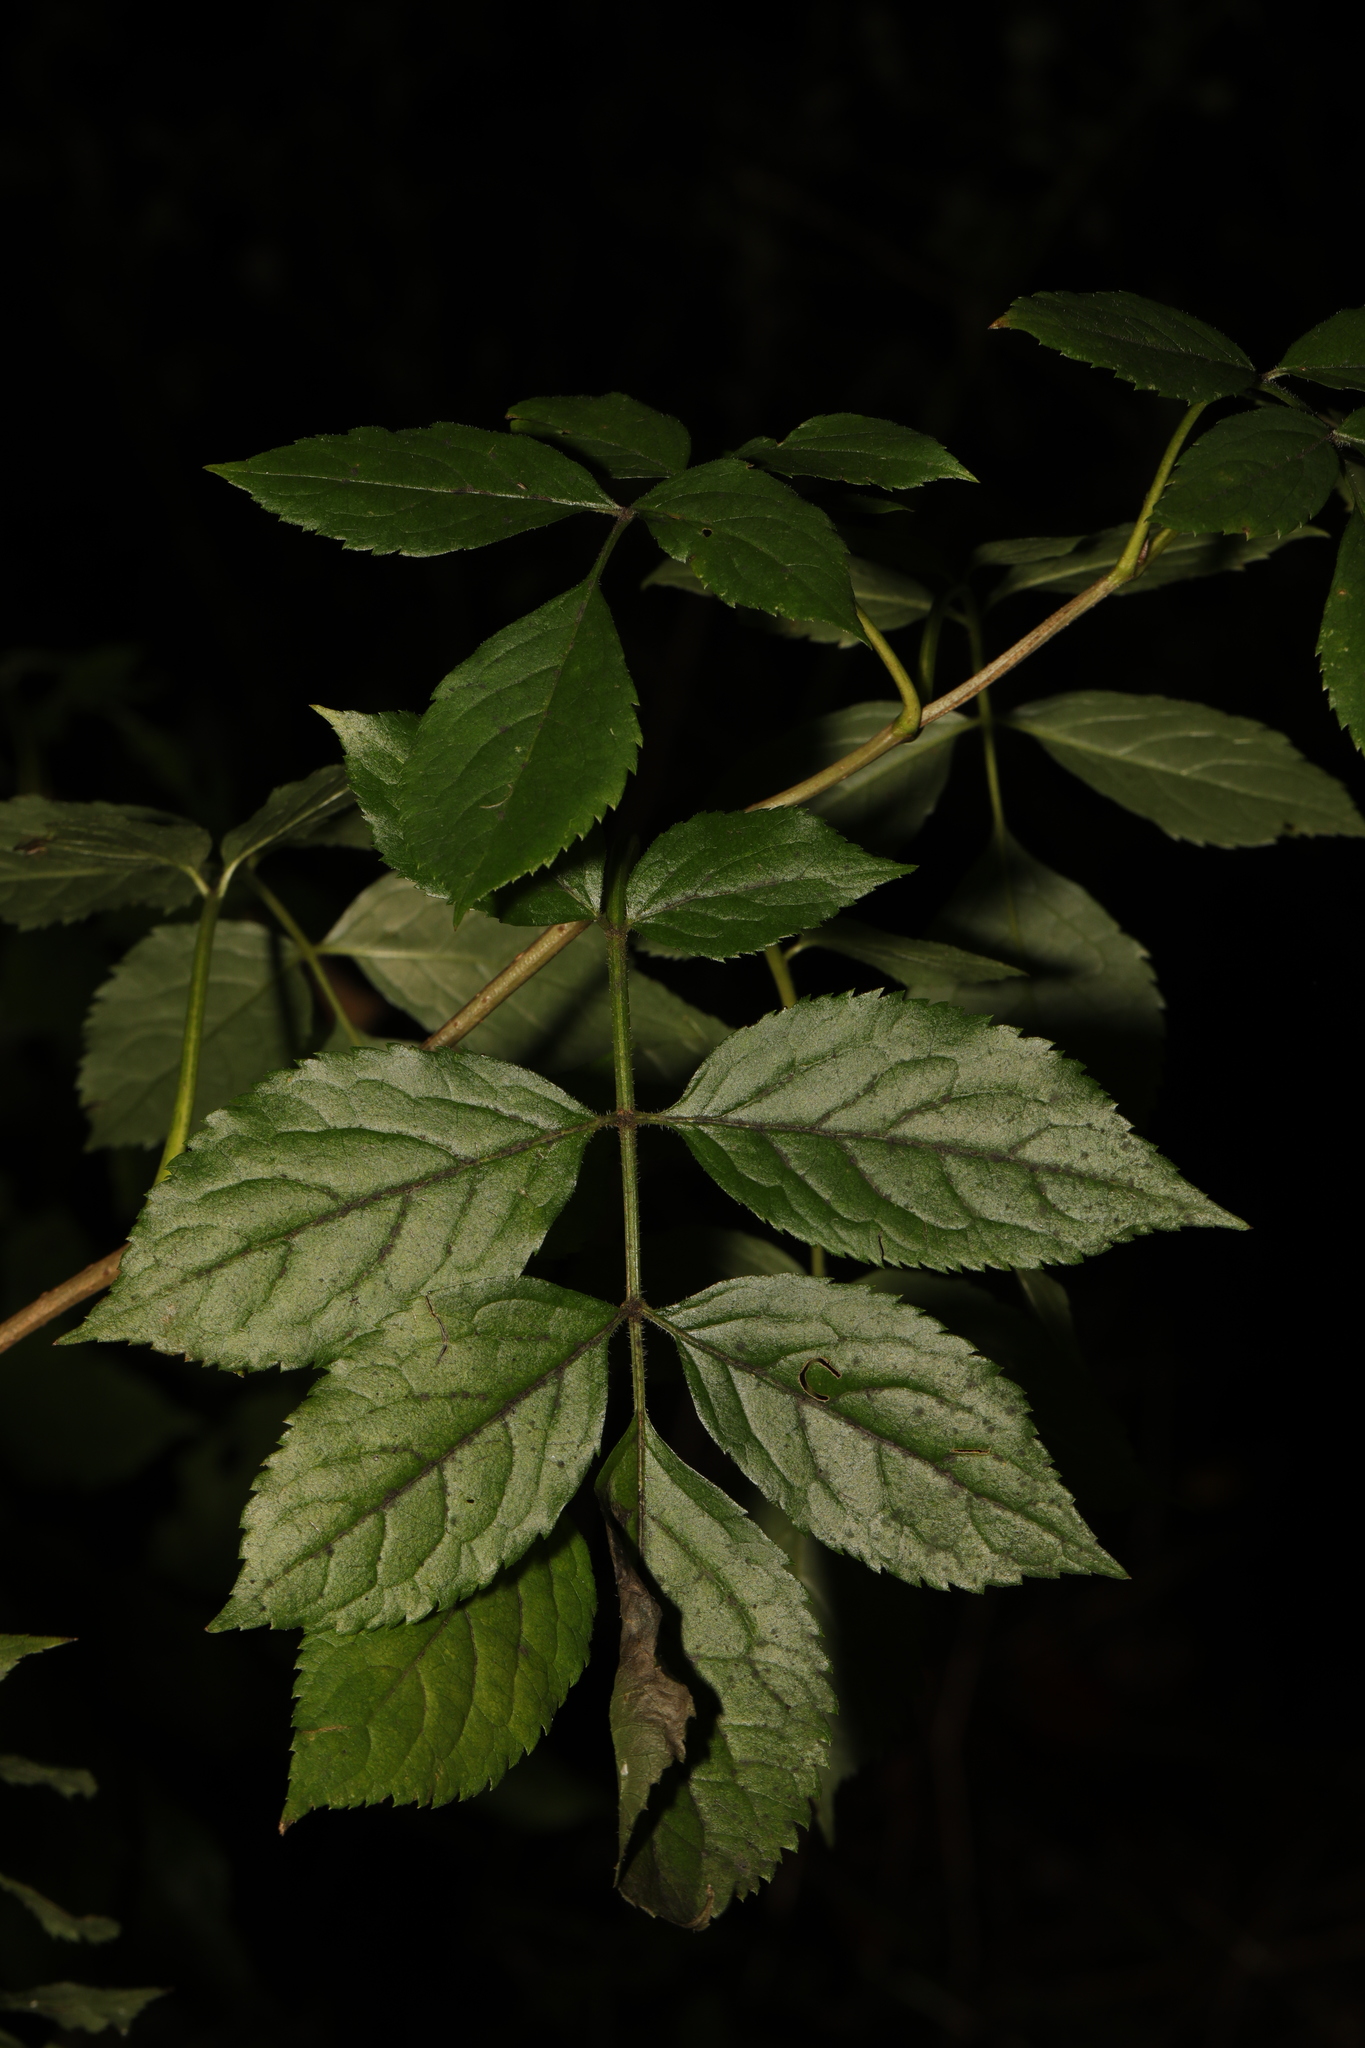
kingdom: Plantae
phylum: Tracheophyta
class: Magnoliopsida
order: Dipsacales
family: Viburnaceae
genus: Sambucus
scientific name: Sambucus nigra
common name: Elder
